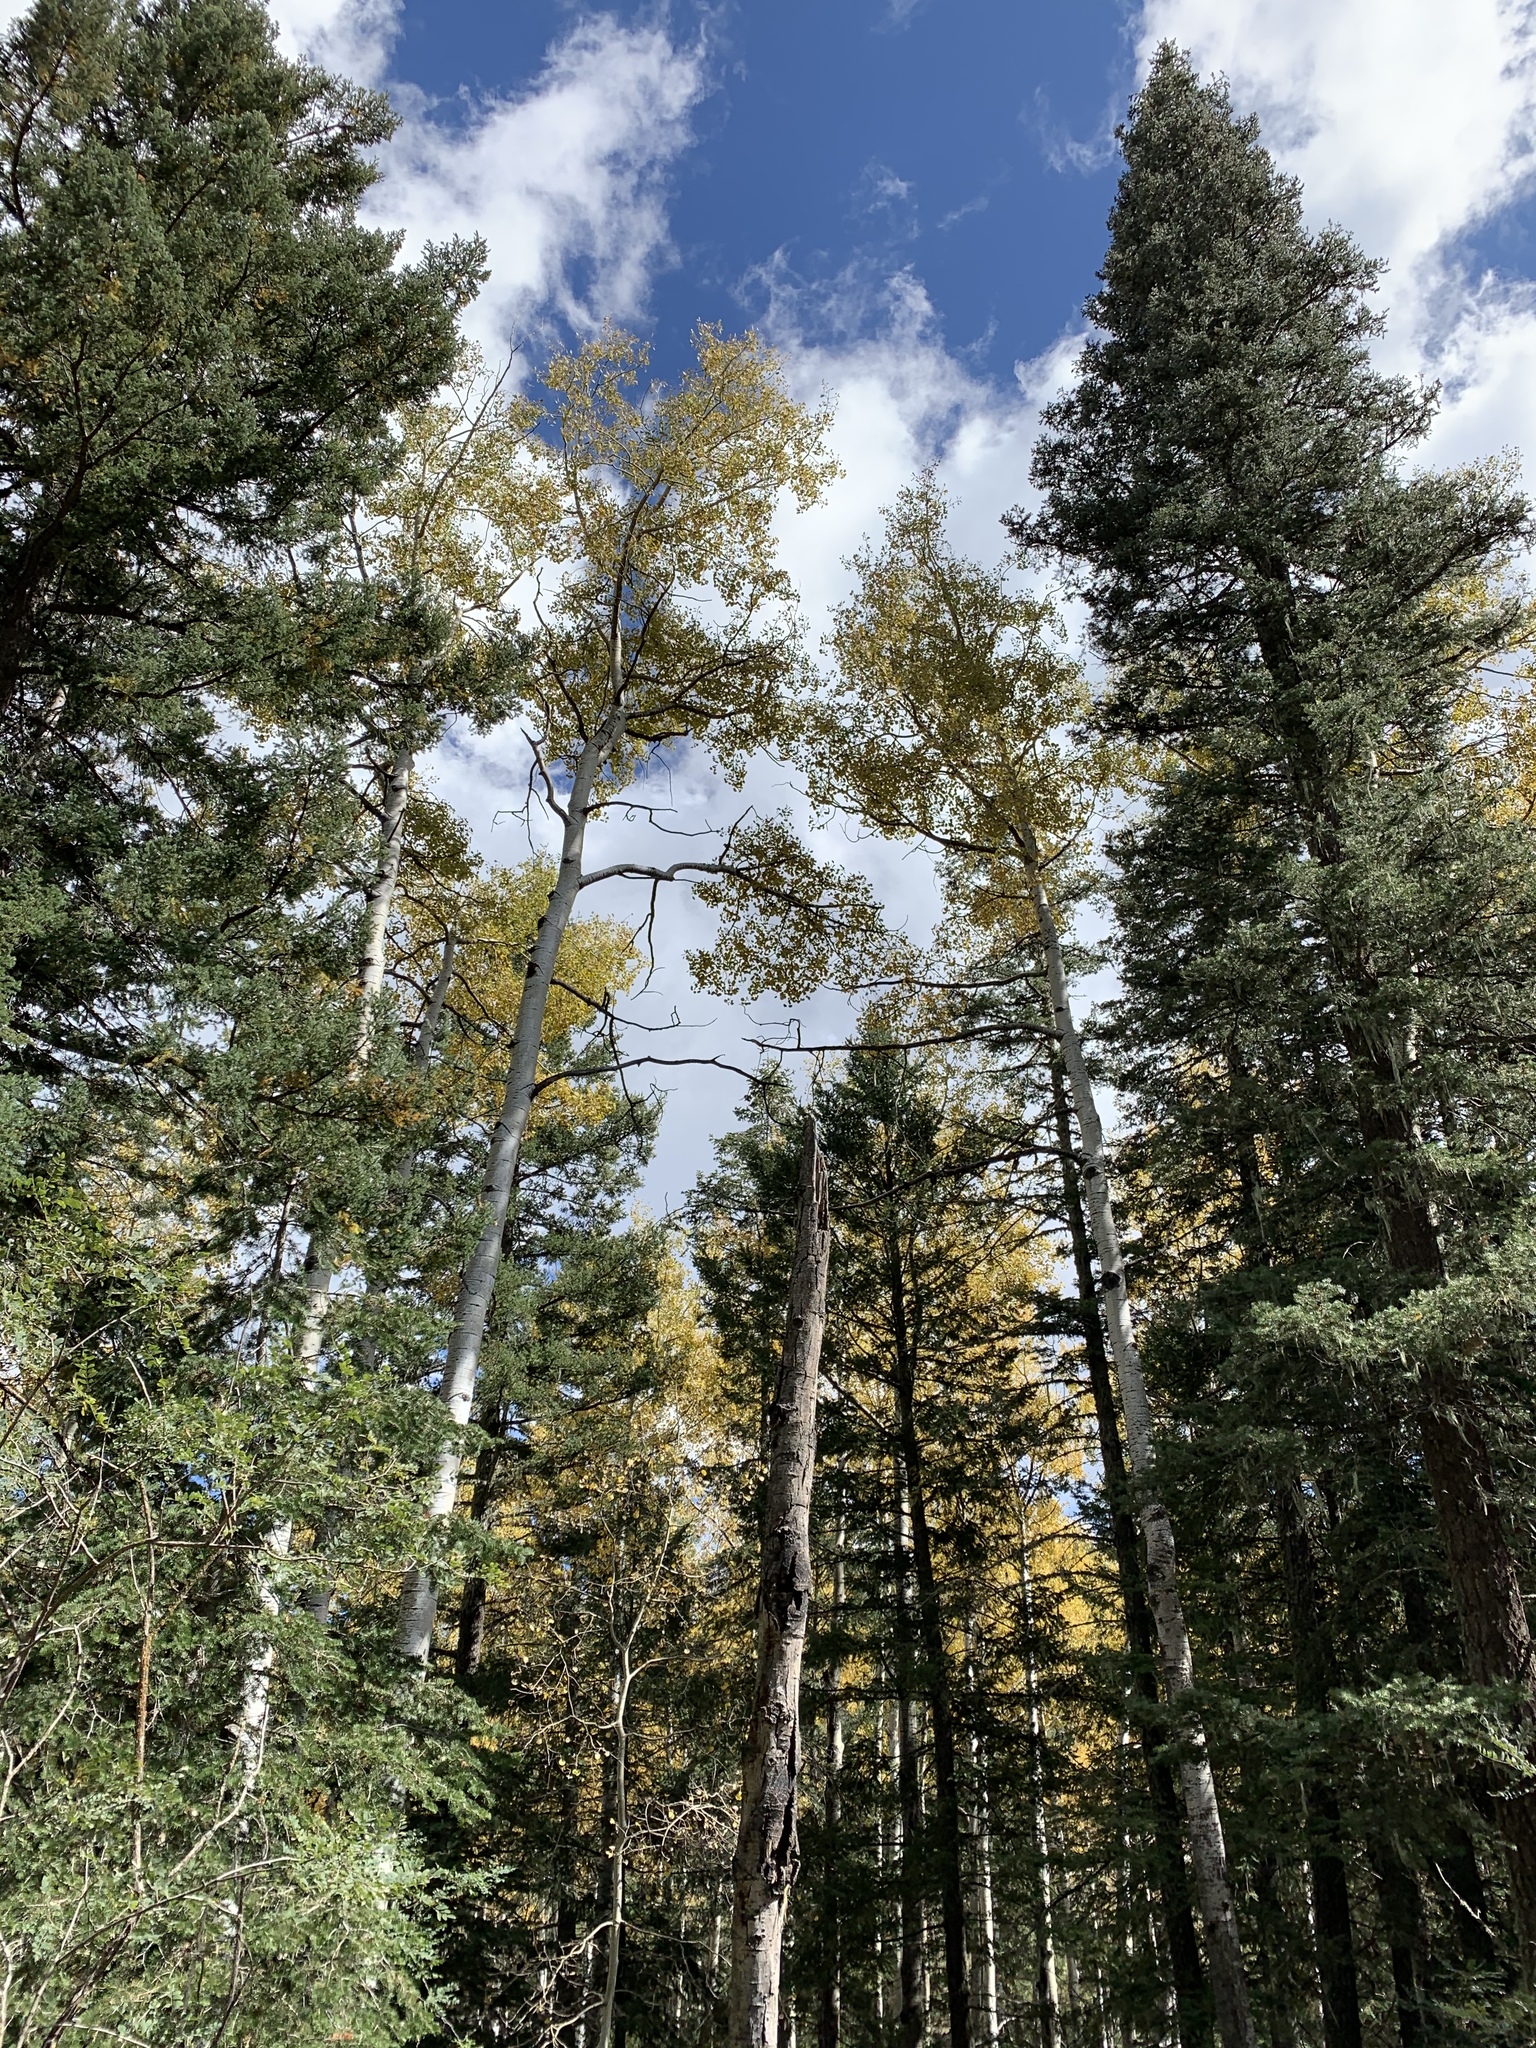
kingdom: Plantae
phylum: Tracheophyta
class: Magnoliopsida
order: Malpighiales
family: Salicaceae
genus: Populus
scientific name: Populus tremuloides
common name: Quaking aspen
